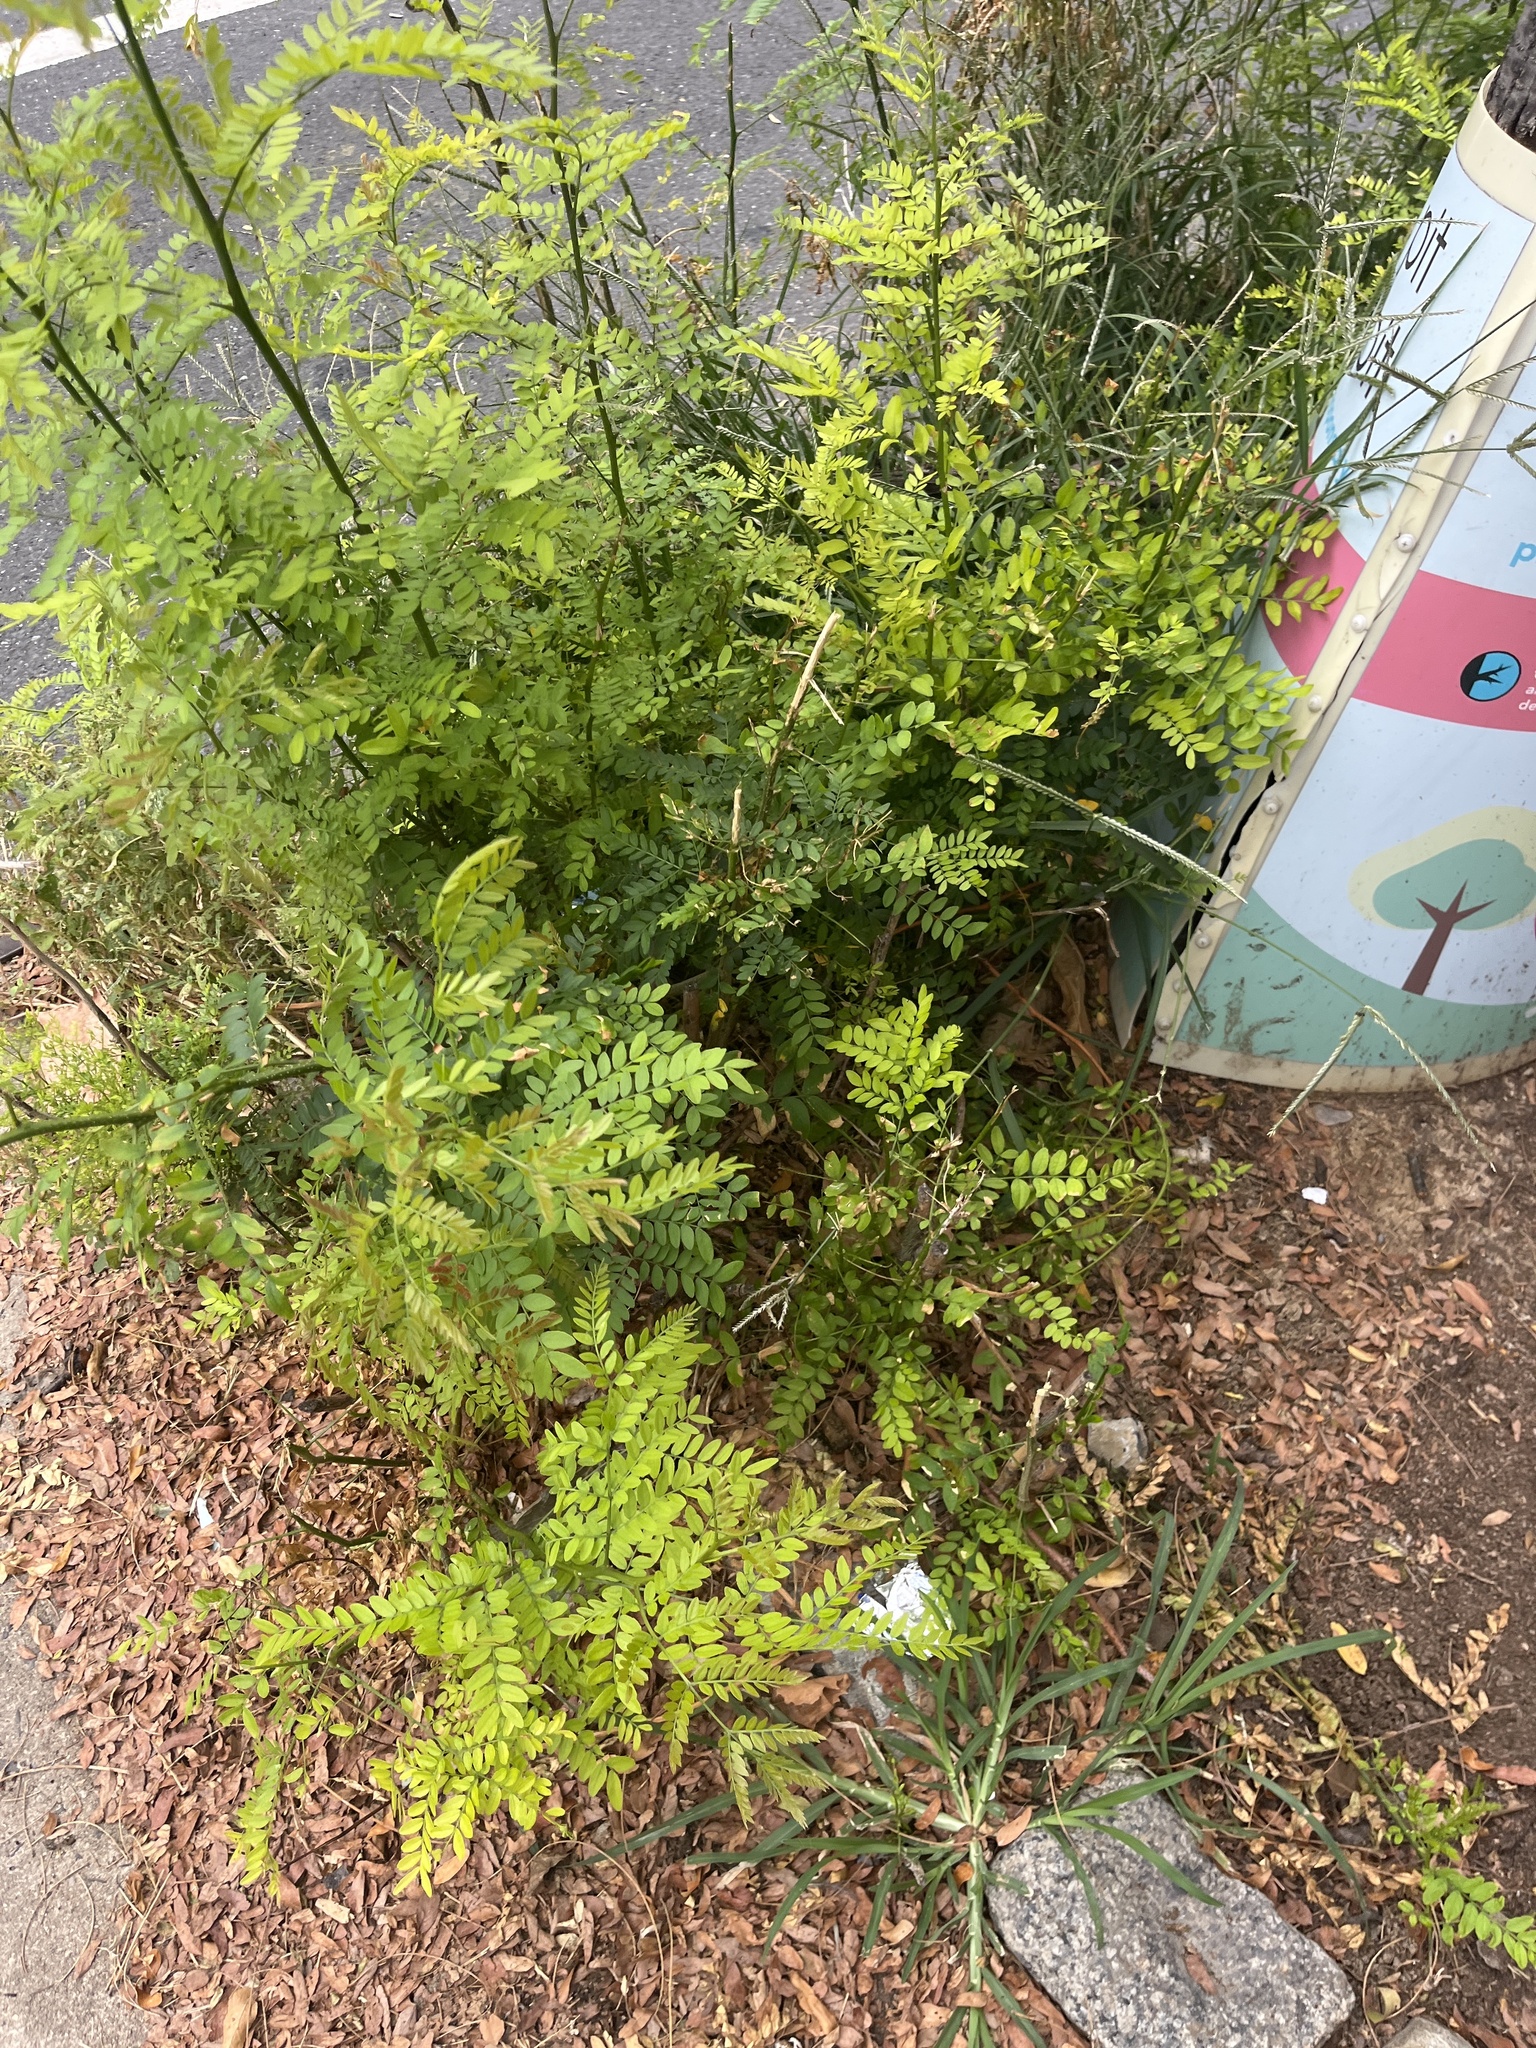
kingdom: Plantae
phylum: Tracheophyta
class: Magnoliopsida
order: Fabales
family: Fabaceae
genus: Gleditsia
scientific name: Gleditsia triacanthos
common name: Common honeylocust
